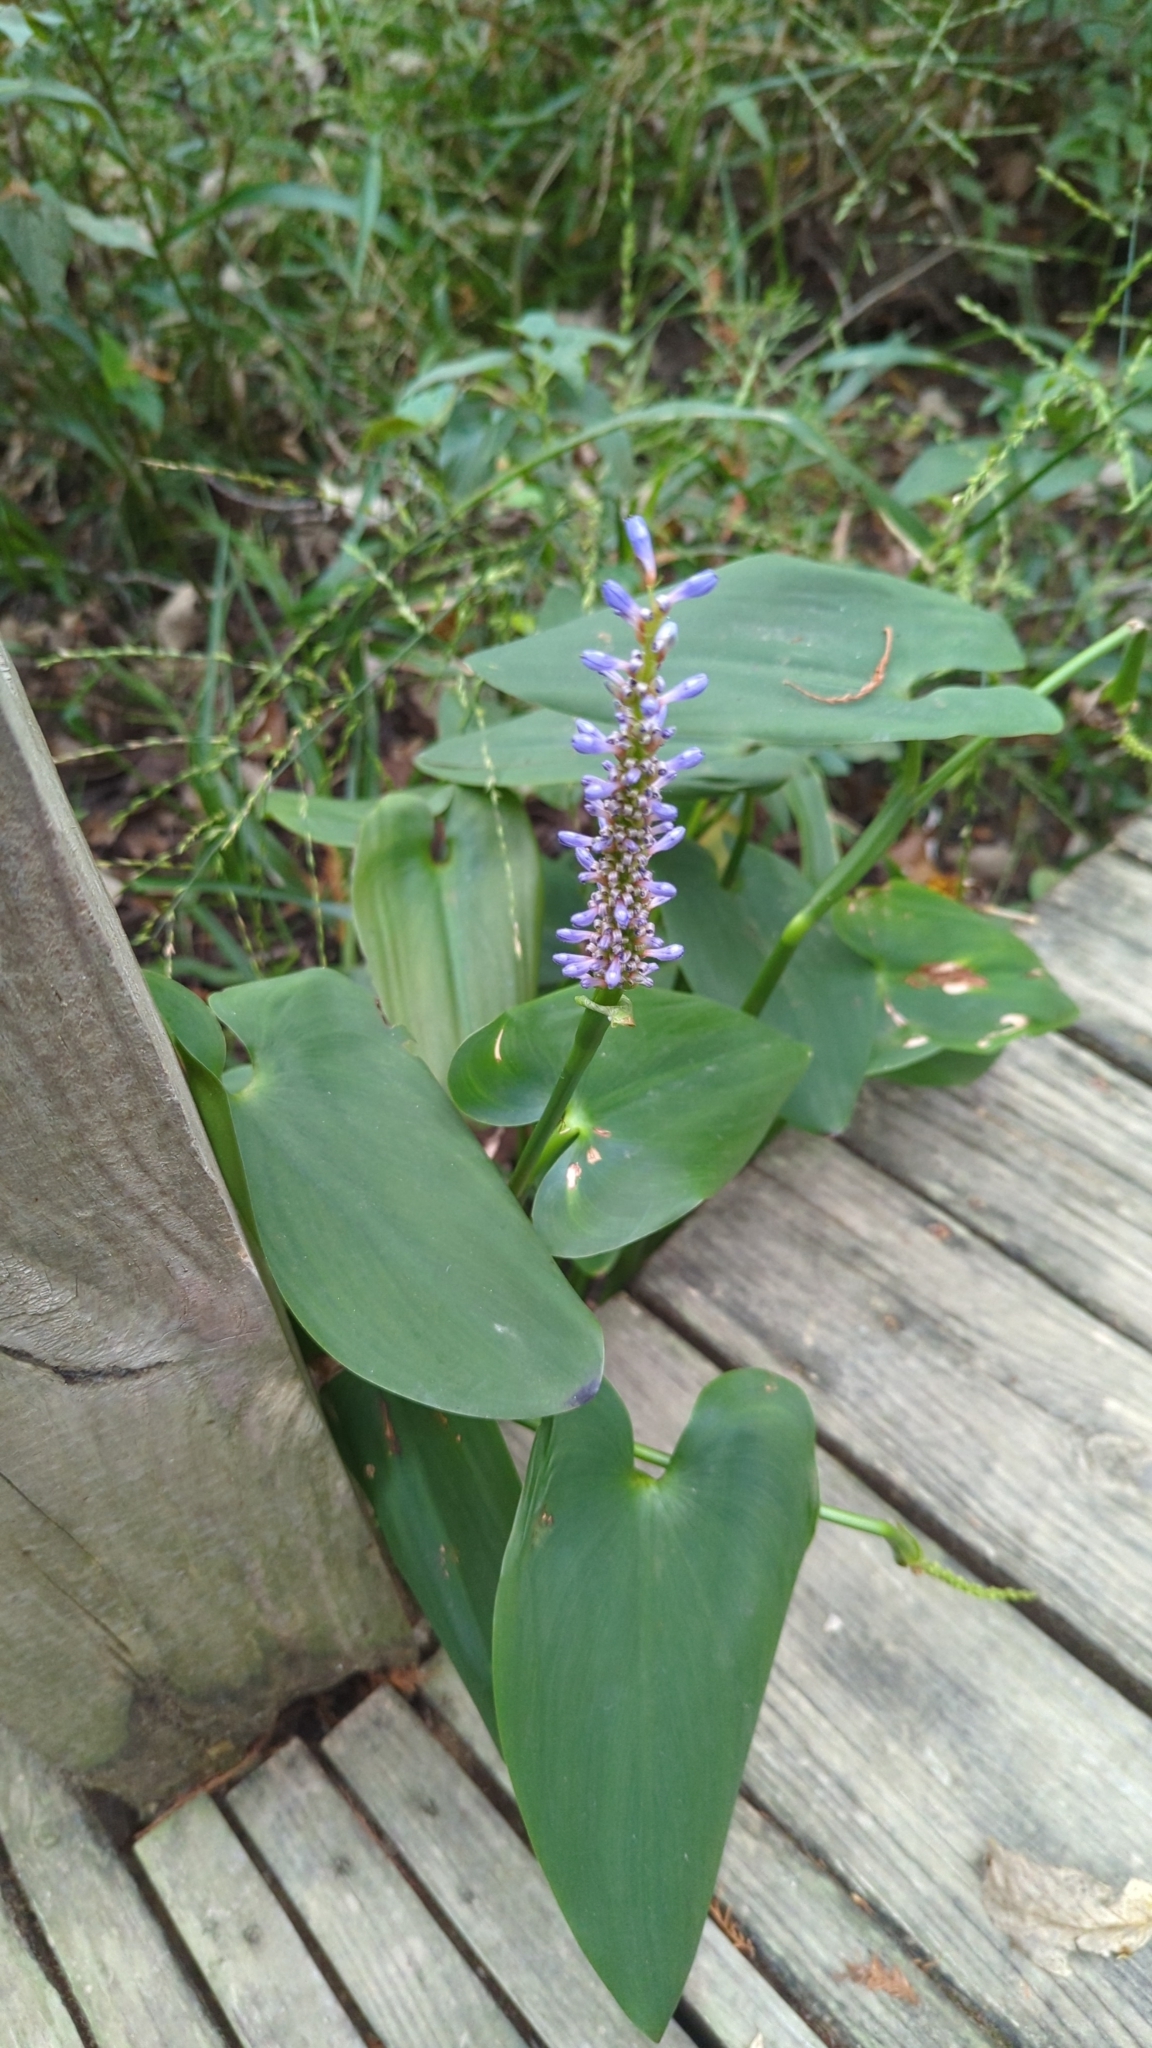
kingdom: Plantae
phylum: Tracheophyta
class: Liliopsida
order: Commelinales
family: Pontederiaceae
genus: Pontederia
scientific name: Pontederia cordata
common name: Pickerelweed
